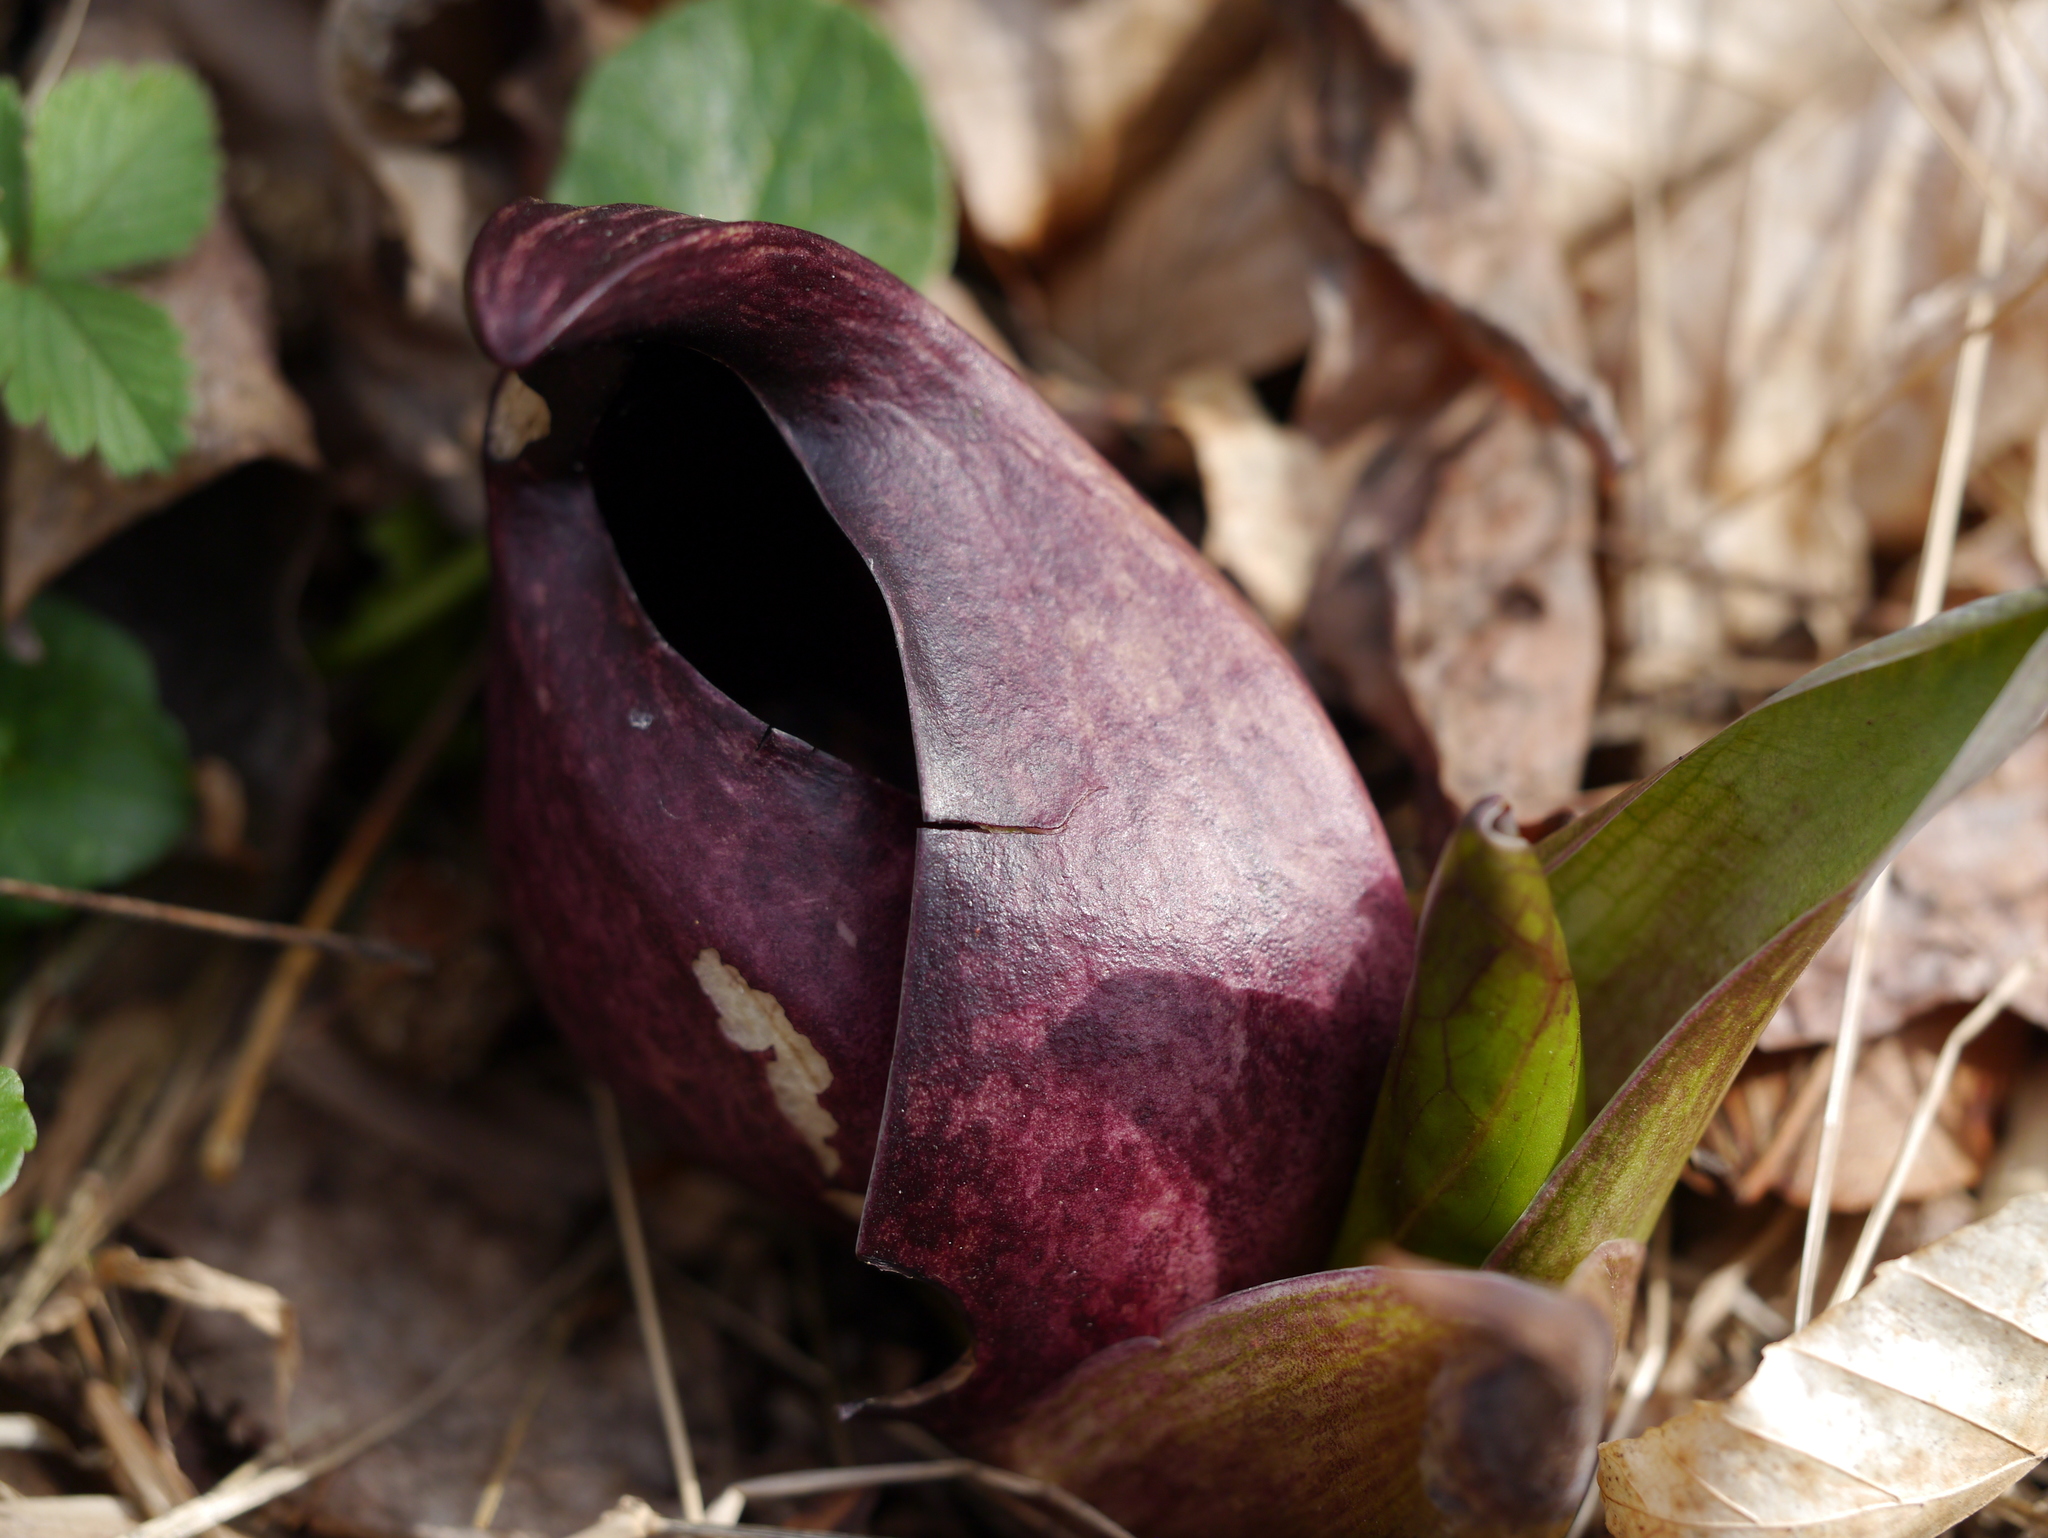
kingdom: Plantae
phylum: Tracheophyta
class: Liliopsida
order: Alismatales
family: Araceae
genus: Symplocarpus
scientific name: Symplocarpus foetidus
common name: Eastern skunk cabbage
